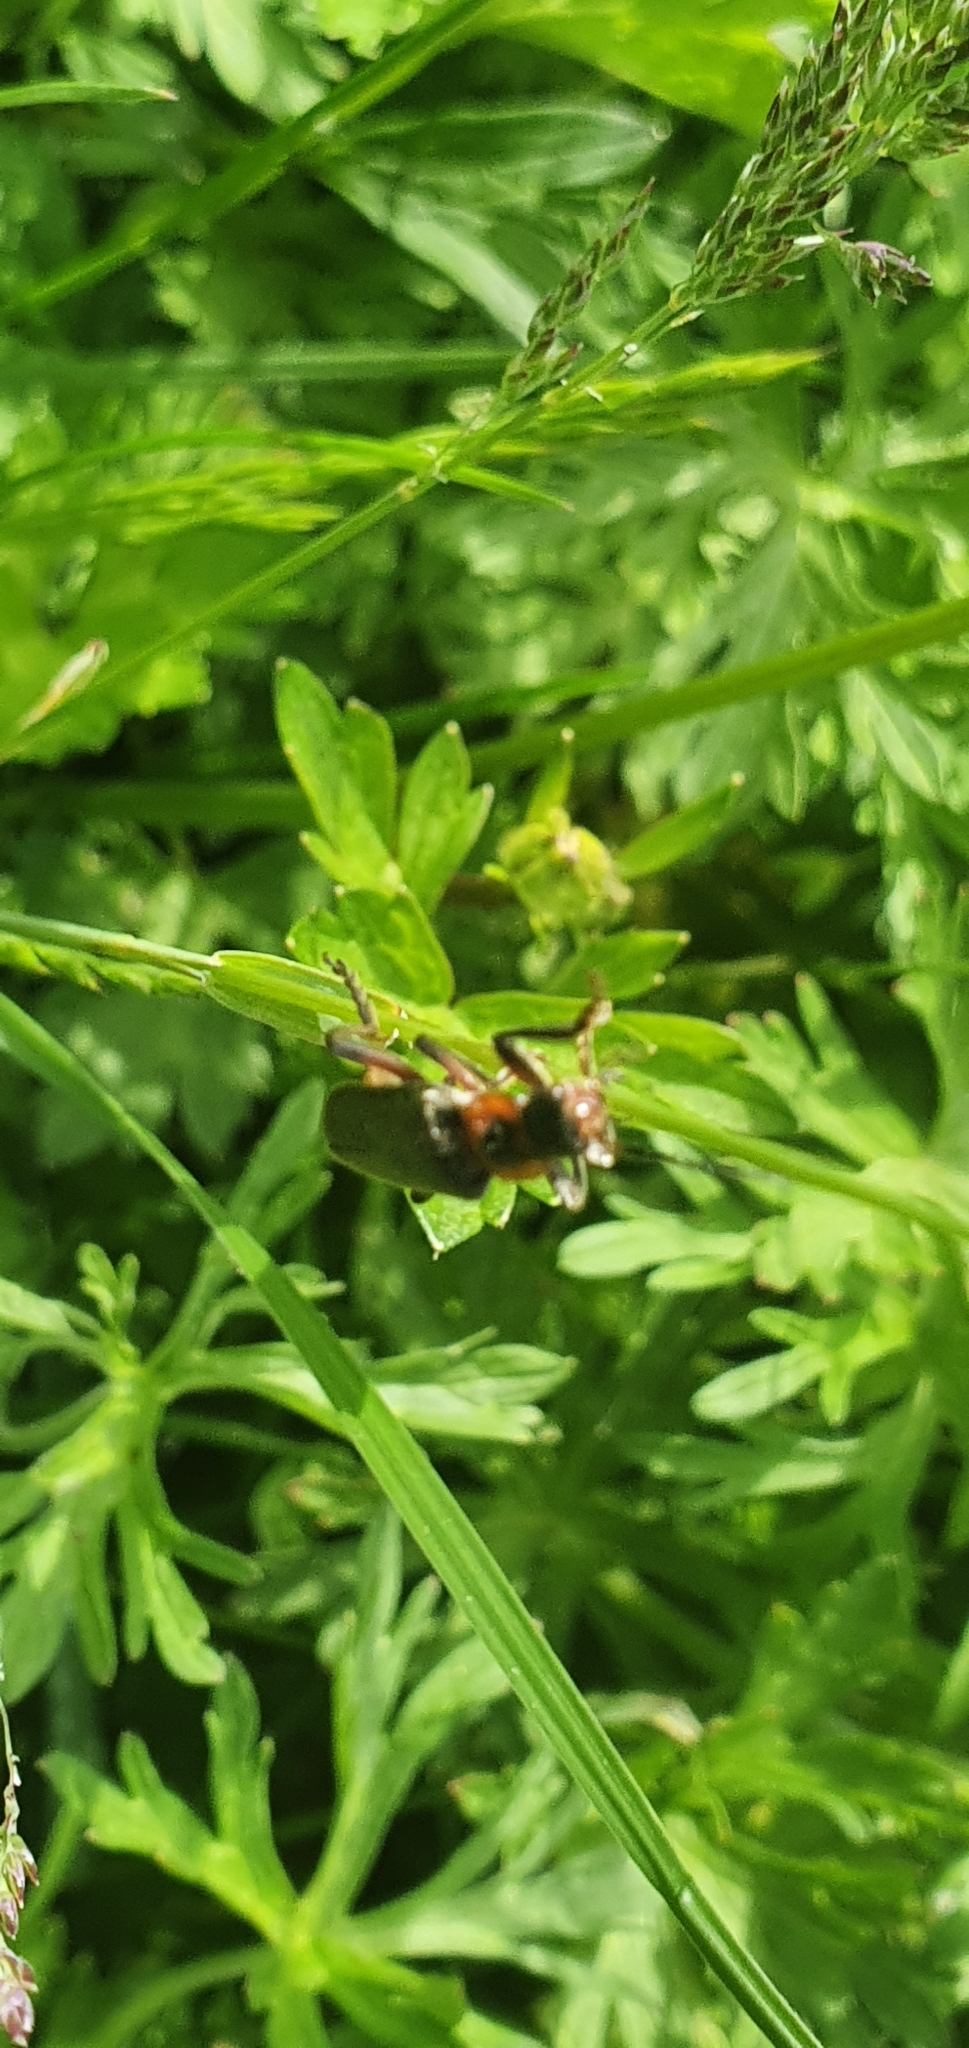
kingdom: Animalia
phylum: Arthropoda
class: Insecta
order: Coleoptera
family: Cantharidae
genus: Cantharis
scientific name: Cantharis rustica
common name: Soldier beetle
